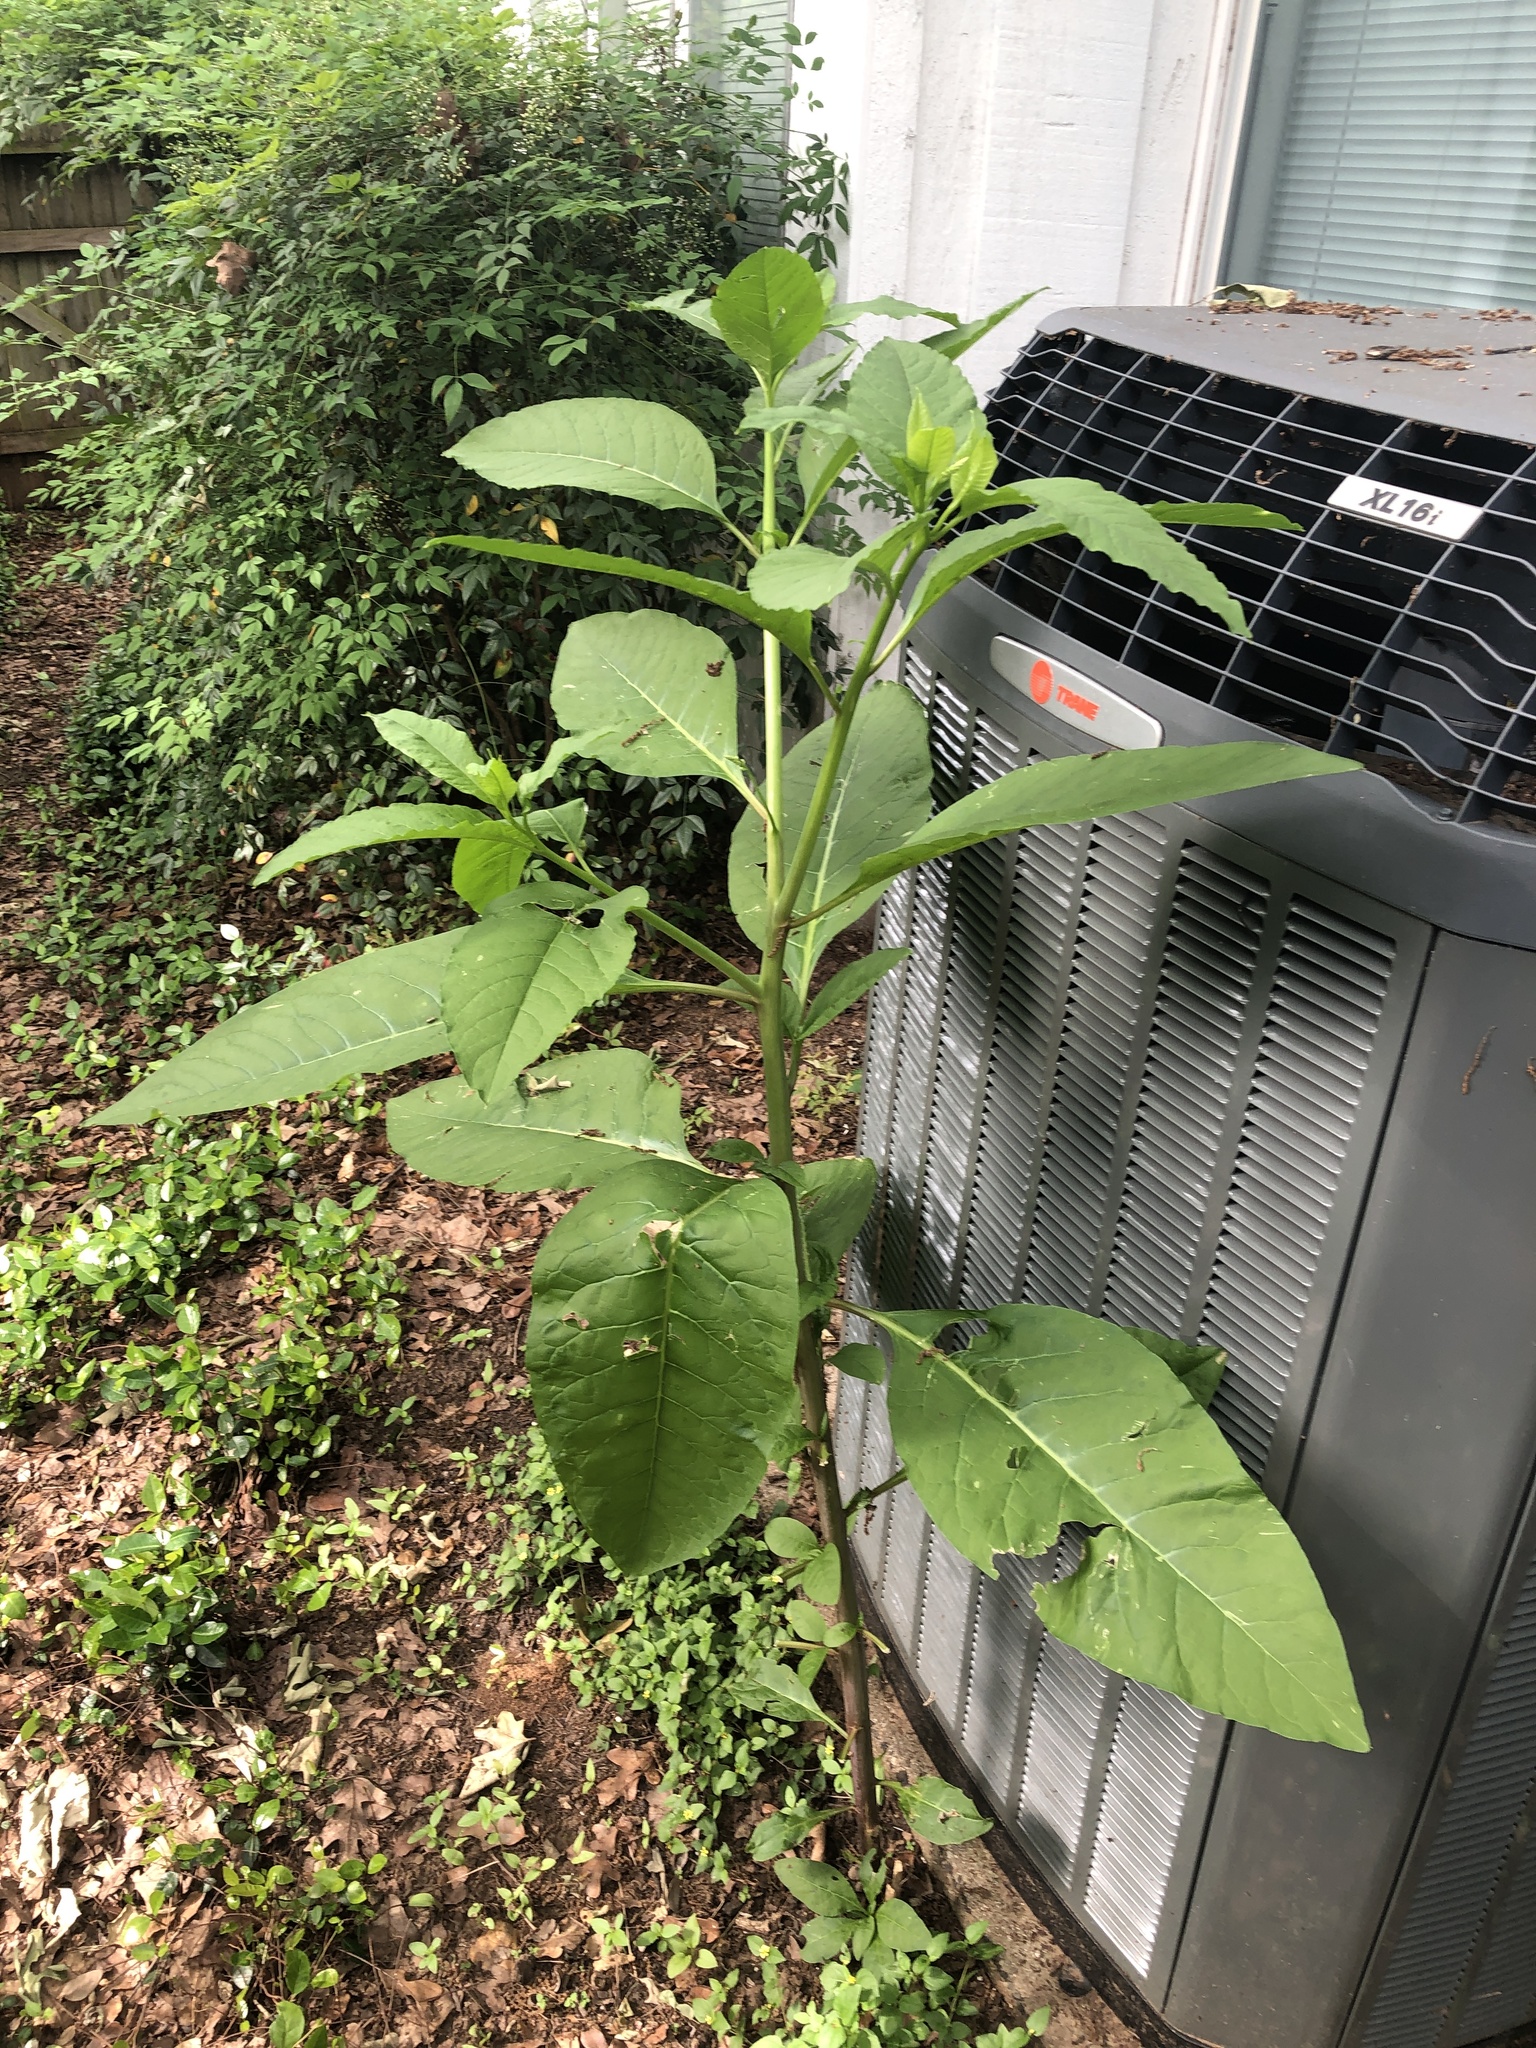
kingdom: Plantae
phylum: Tracheophyta
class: Magnoliopsida
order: Caryophyllales
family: Phytolaccaceae
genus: Phytolacca
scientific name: Phytolacca americana
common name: American pokeweed
